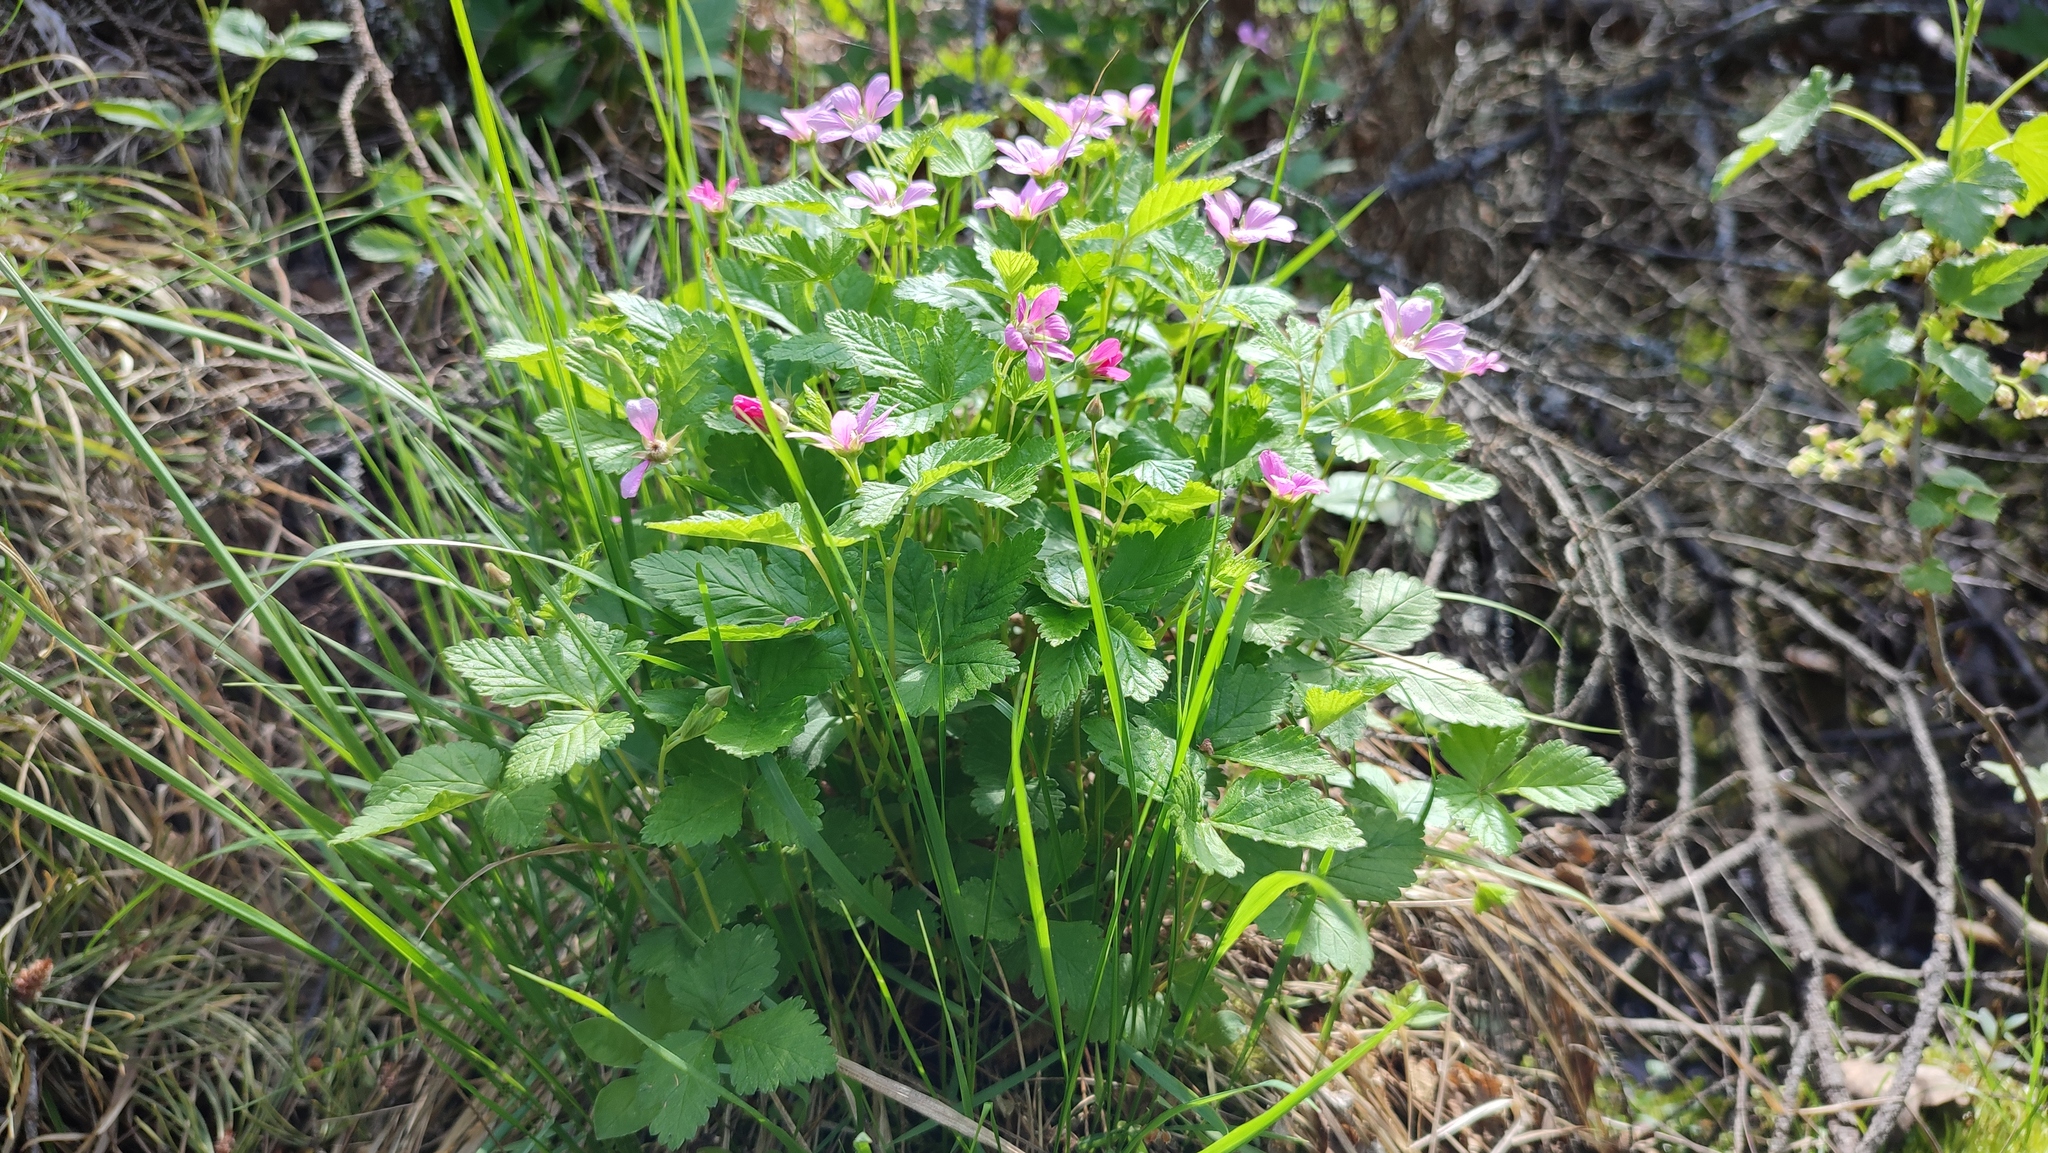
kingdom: Plantae
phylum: Tracheophyta
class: Magnoliopsida
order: Rosales
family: Rosaceae
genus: Rubus
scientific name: Rubus arcticus
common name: Arctic bramble
